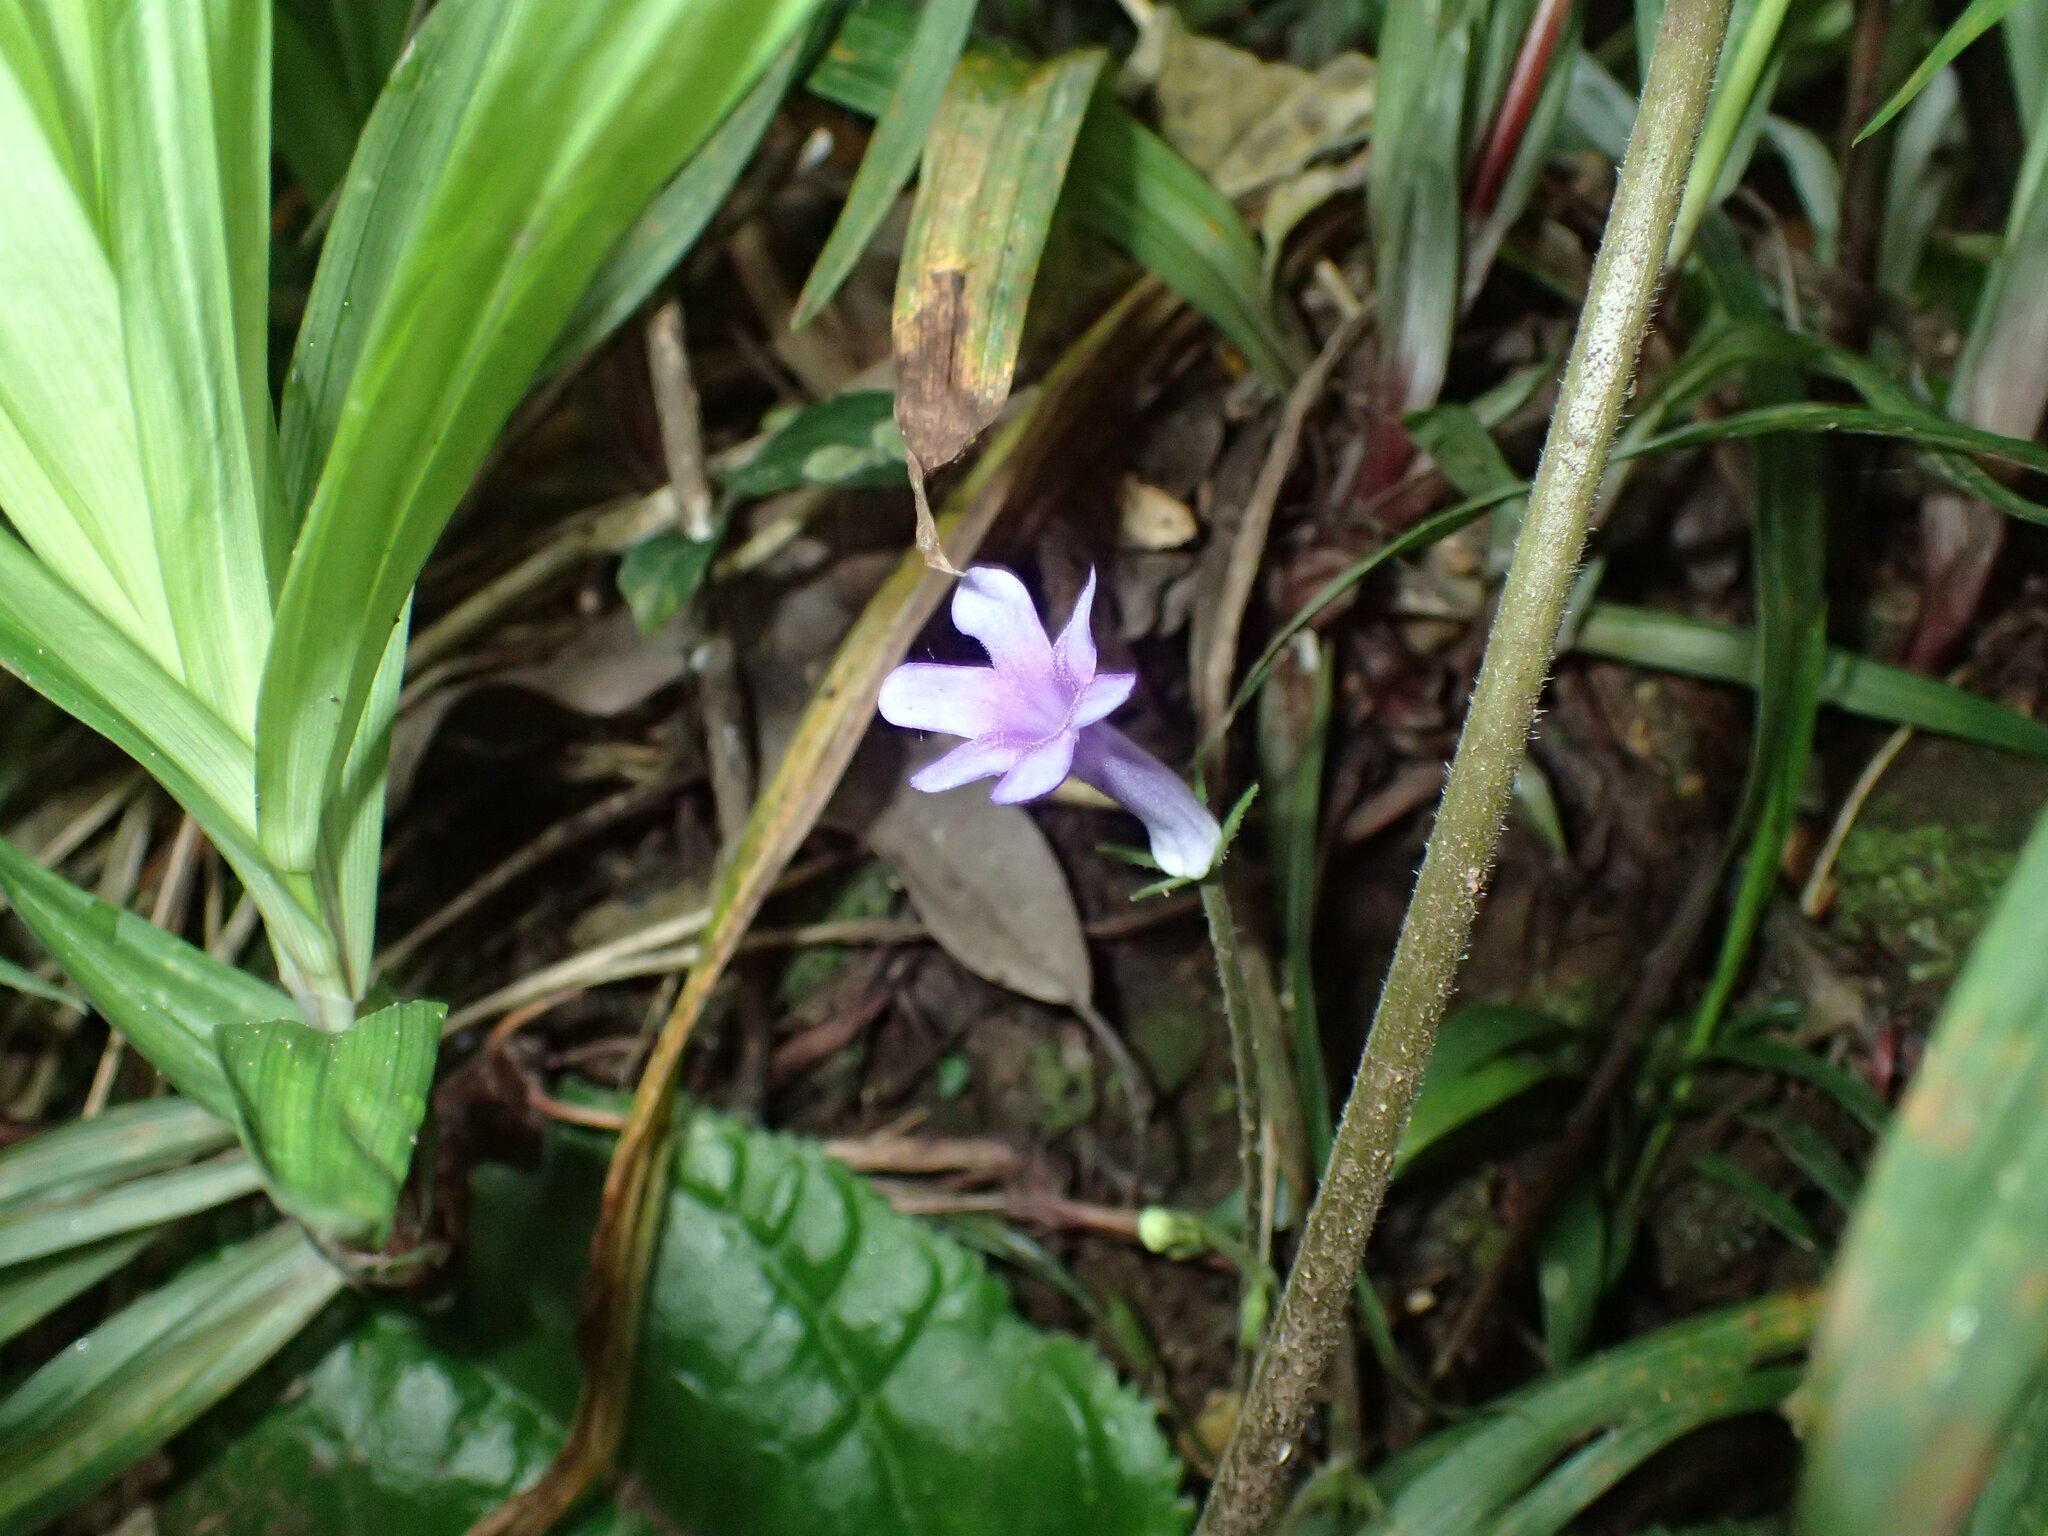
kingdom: Plantae
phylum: Tracheophyta
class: Magnoliopsida
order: Lamiales
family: Gesneriaceae
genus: Streptocarpus
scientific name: Streptocarpus molweniensis
